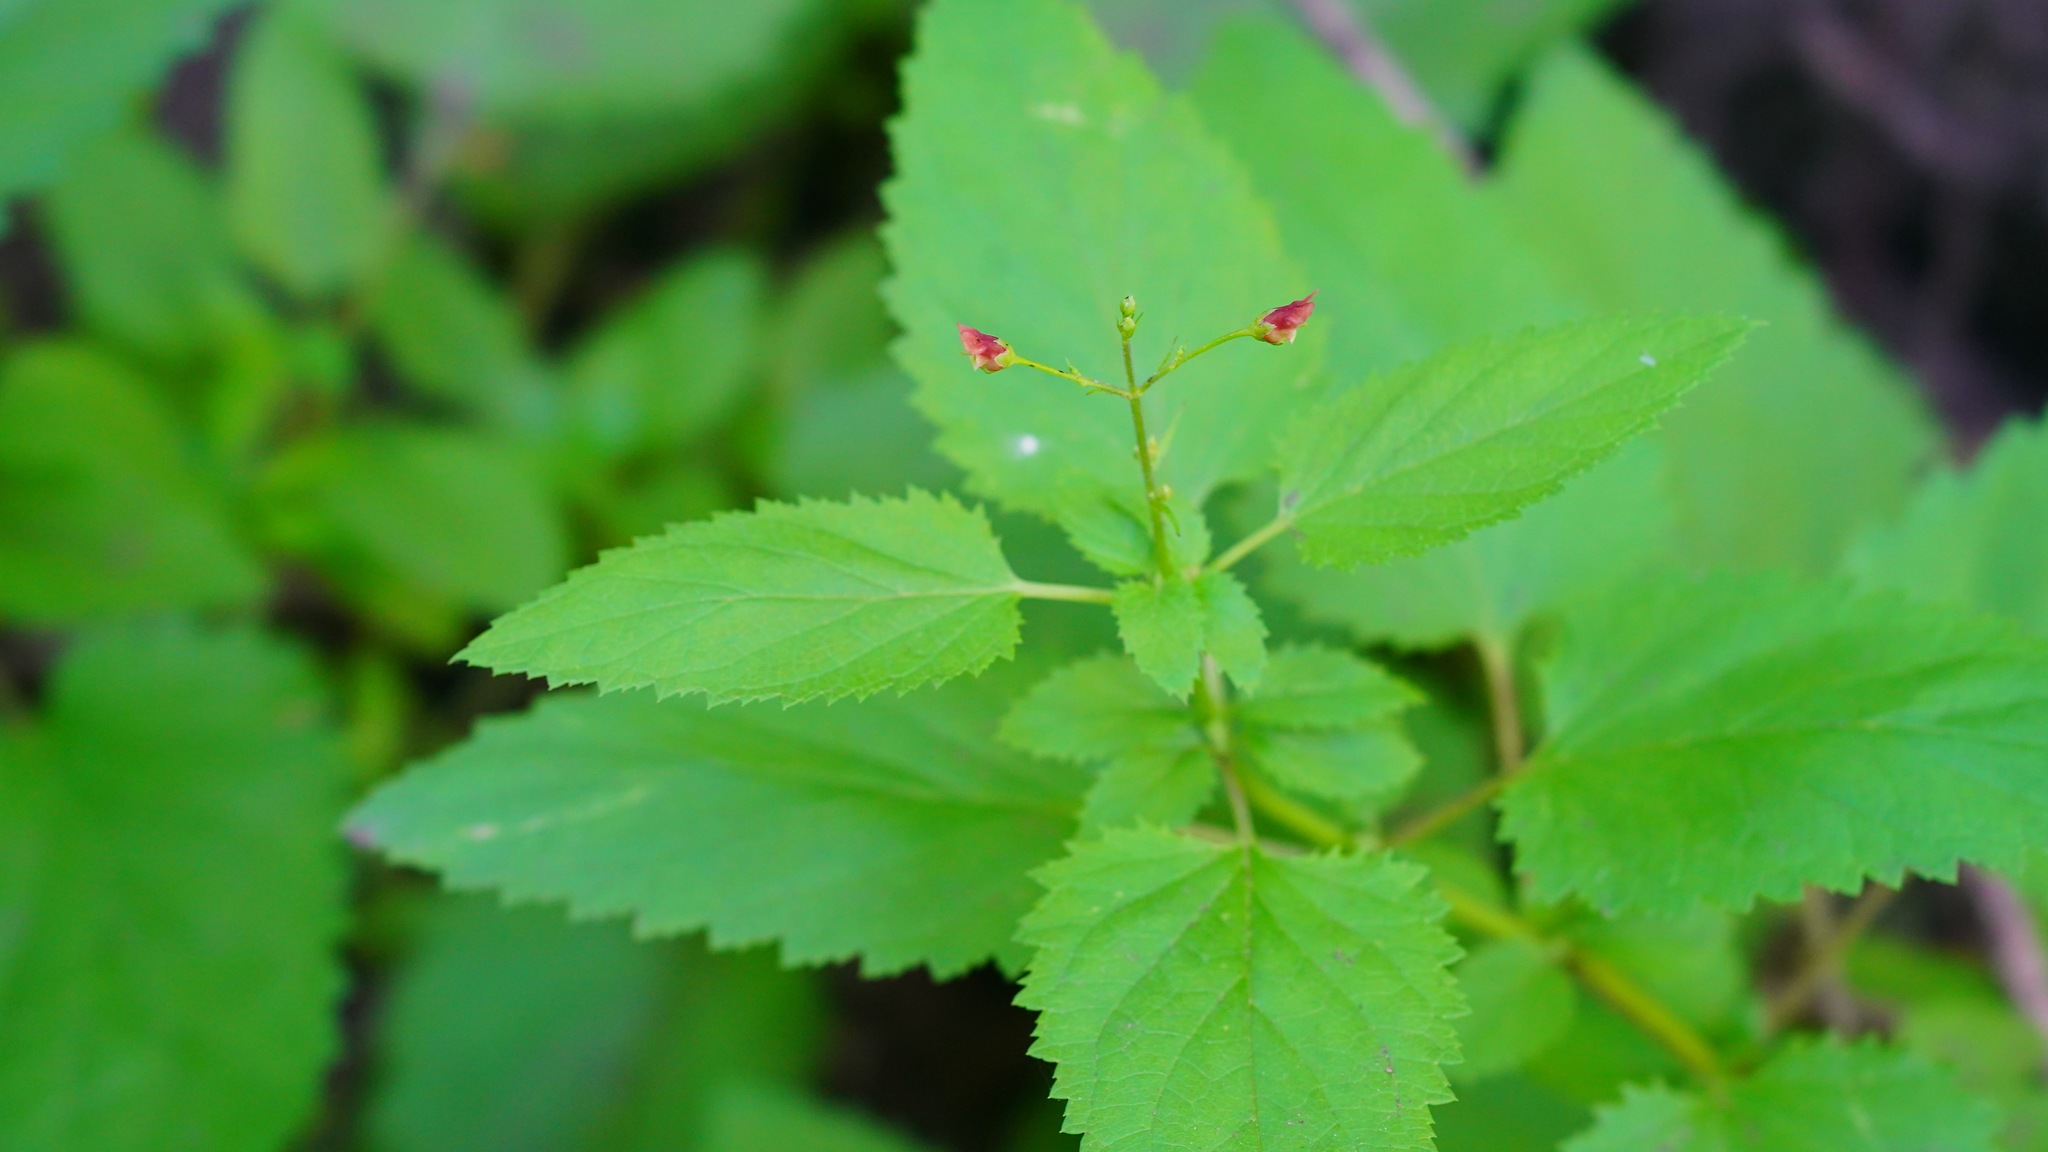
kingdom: Plantae
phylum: Tracheophyta
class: Magnoliopsida
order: Lamiales
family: Scrophulariaceae
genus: Scrophularia
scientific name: Scrophularia californica
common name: California figwort
